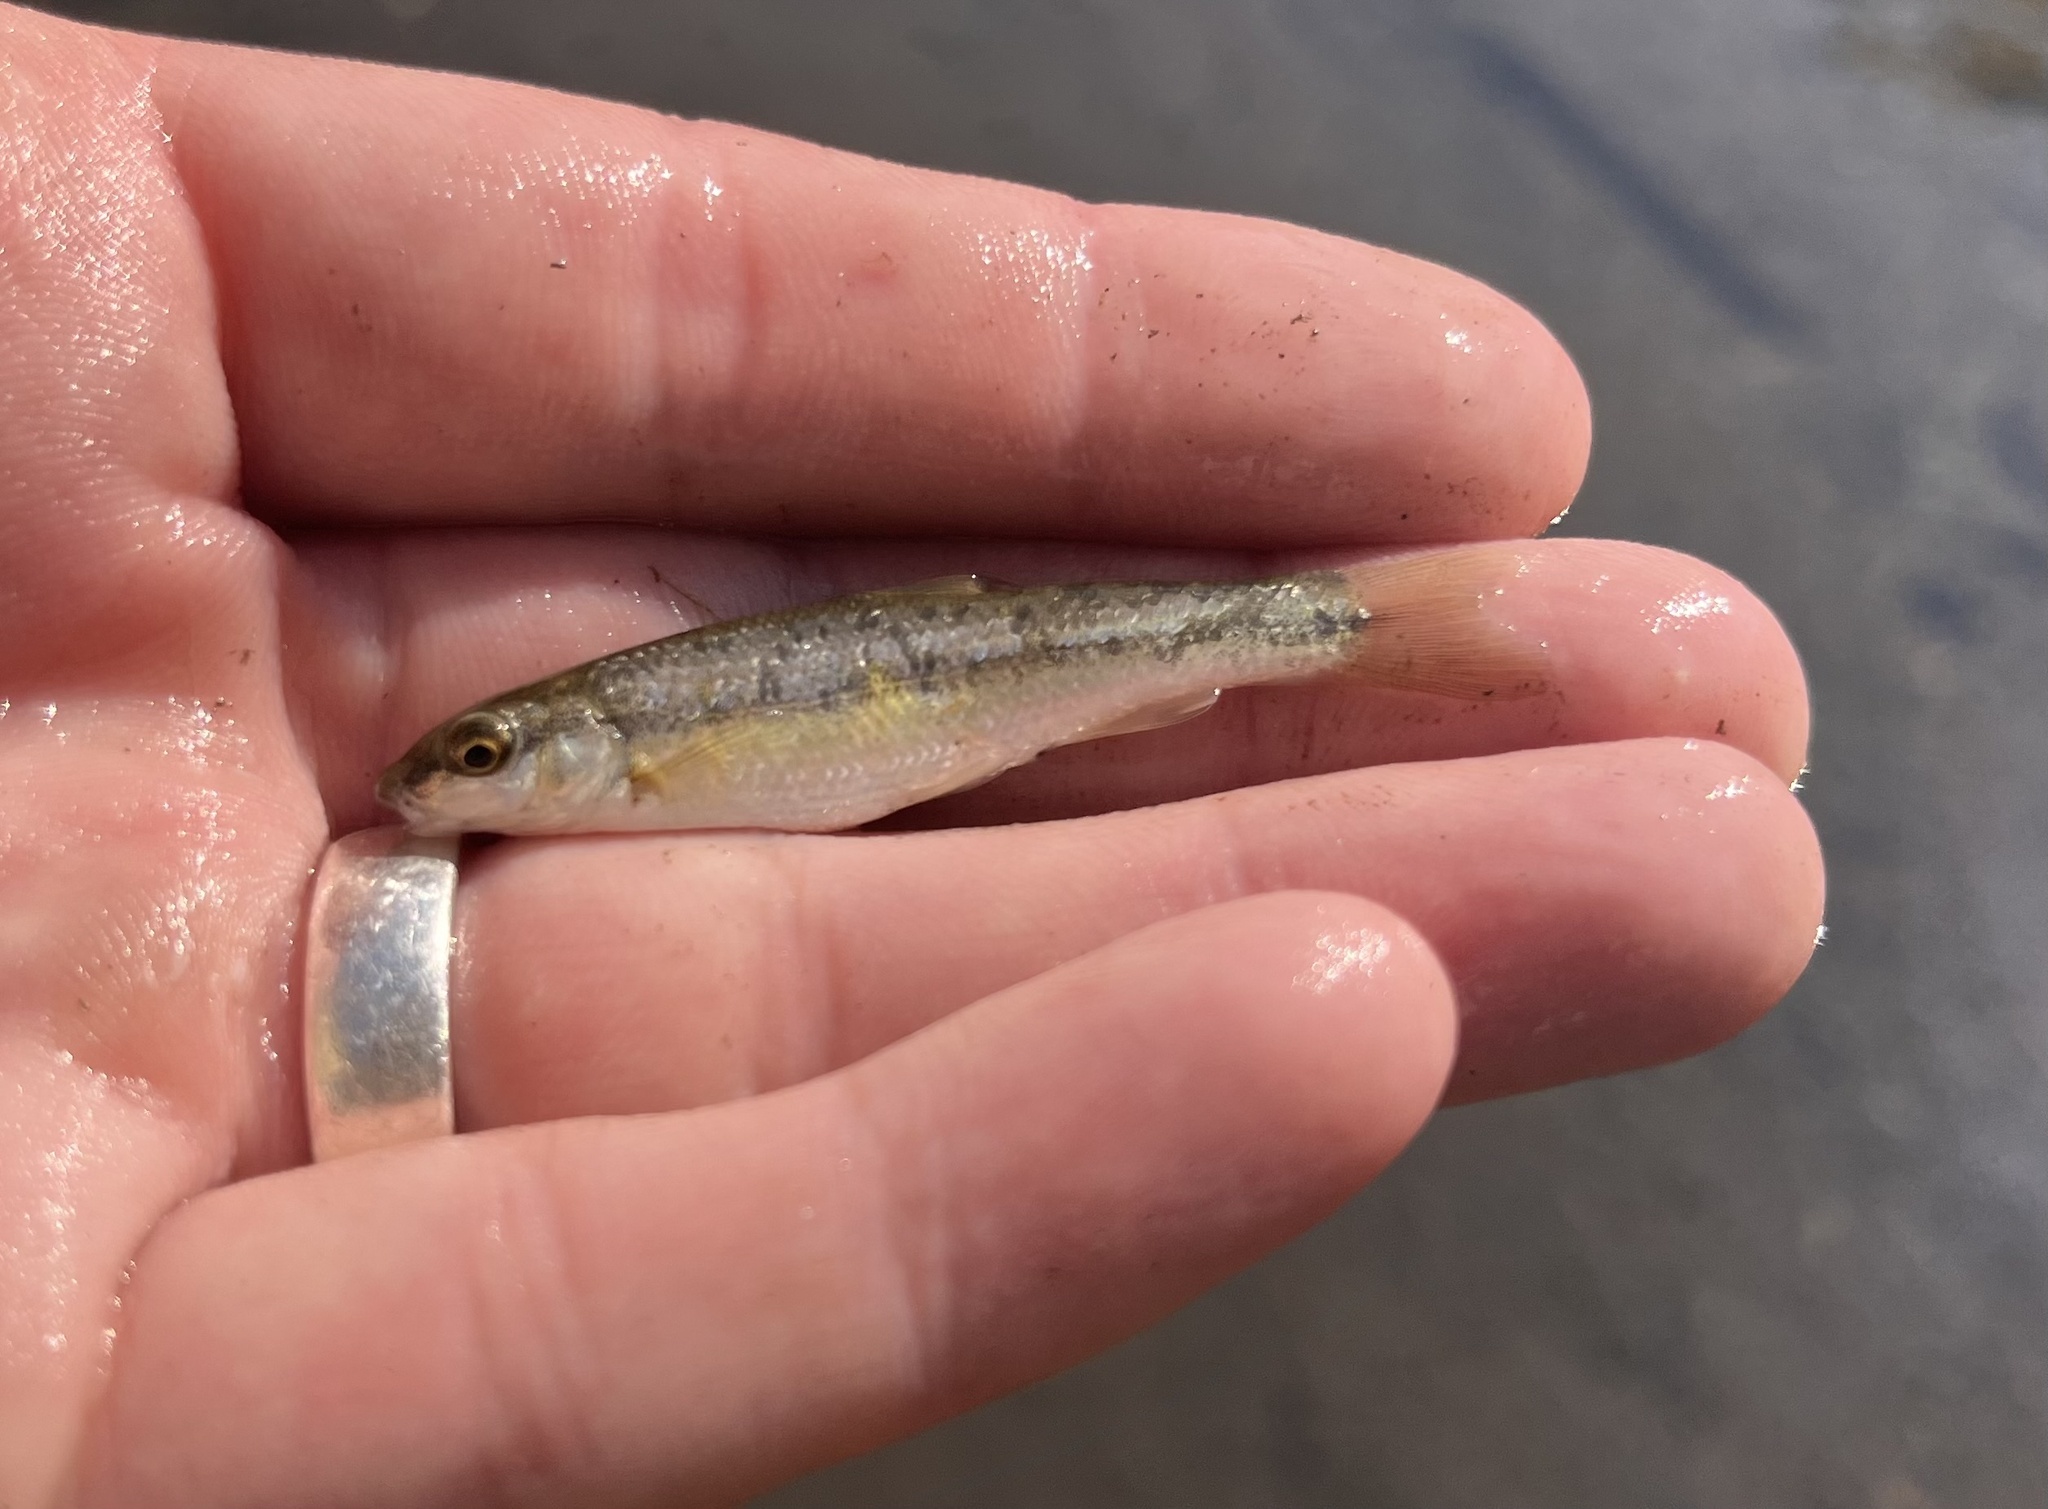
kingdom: Animalia
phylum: Chordata
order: Cypriniformes
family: Cyprinidae
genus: Campostoma
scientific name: Campostoma anomalum
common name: Central stoneroller
